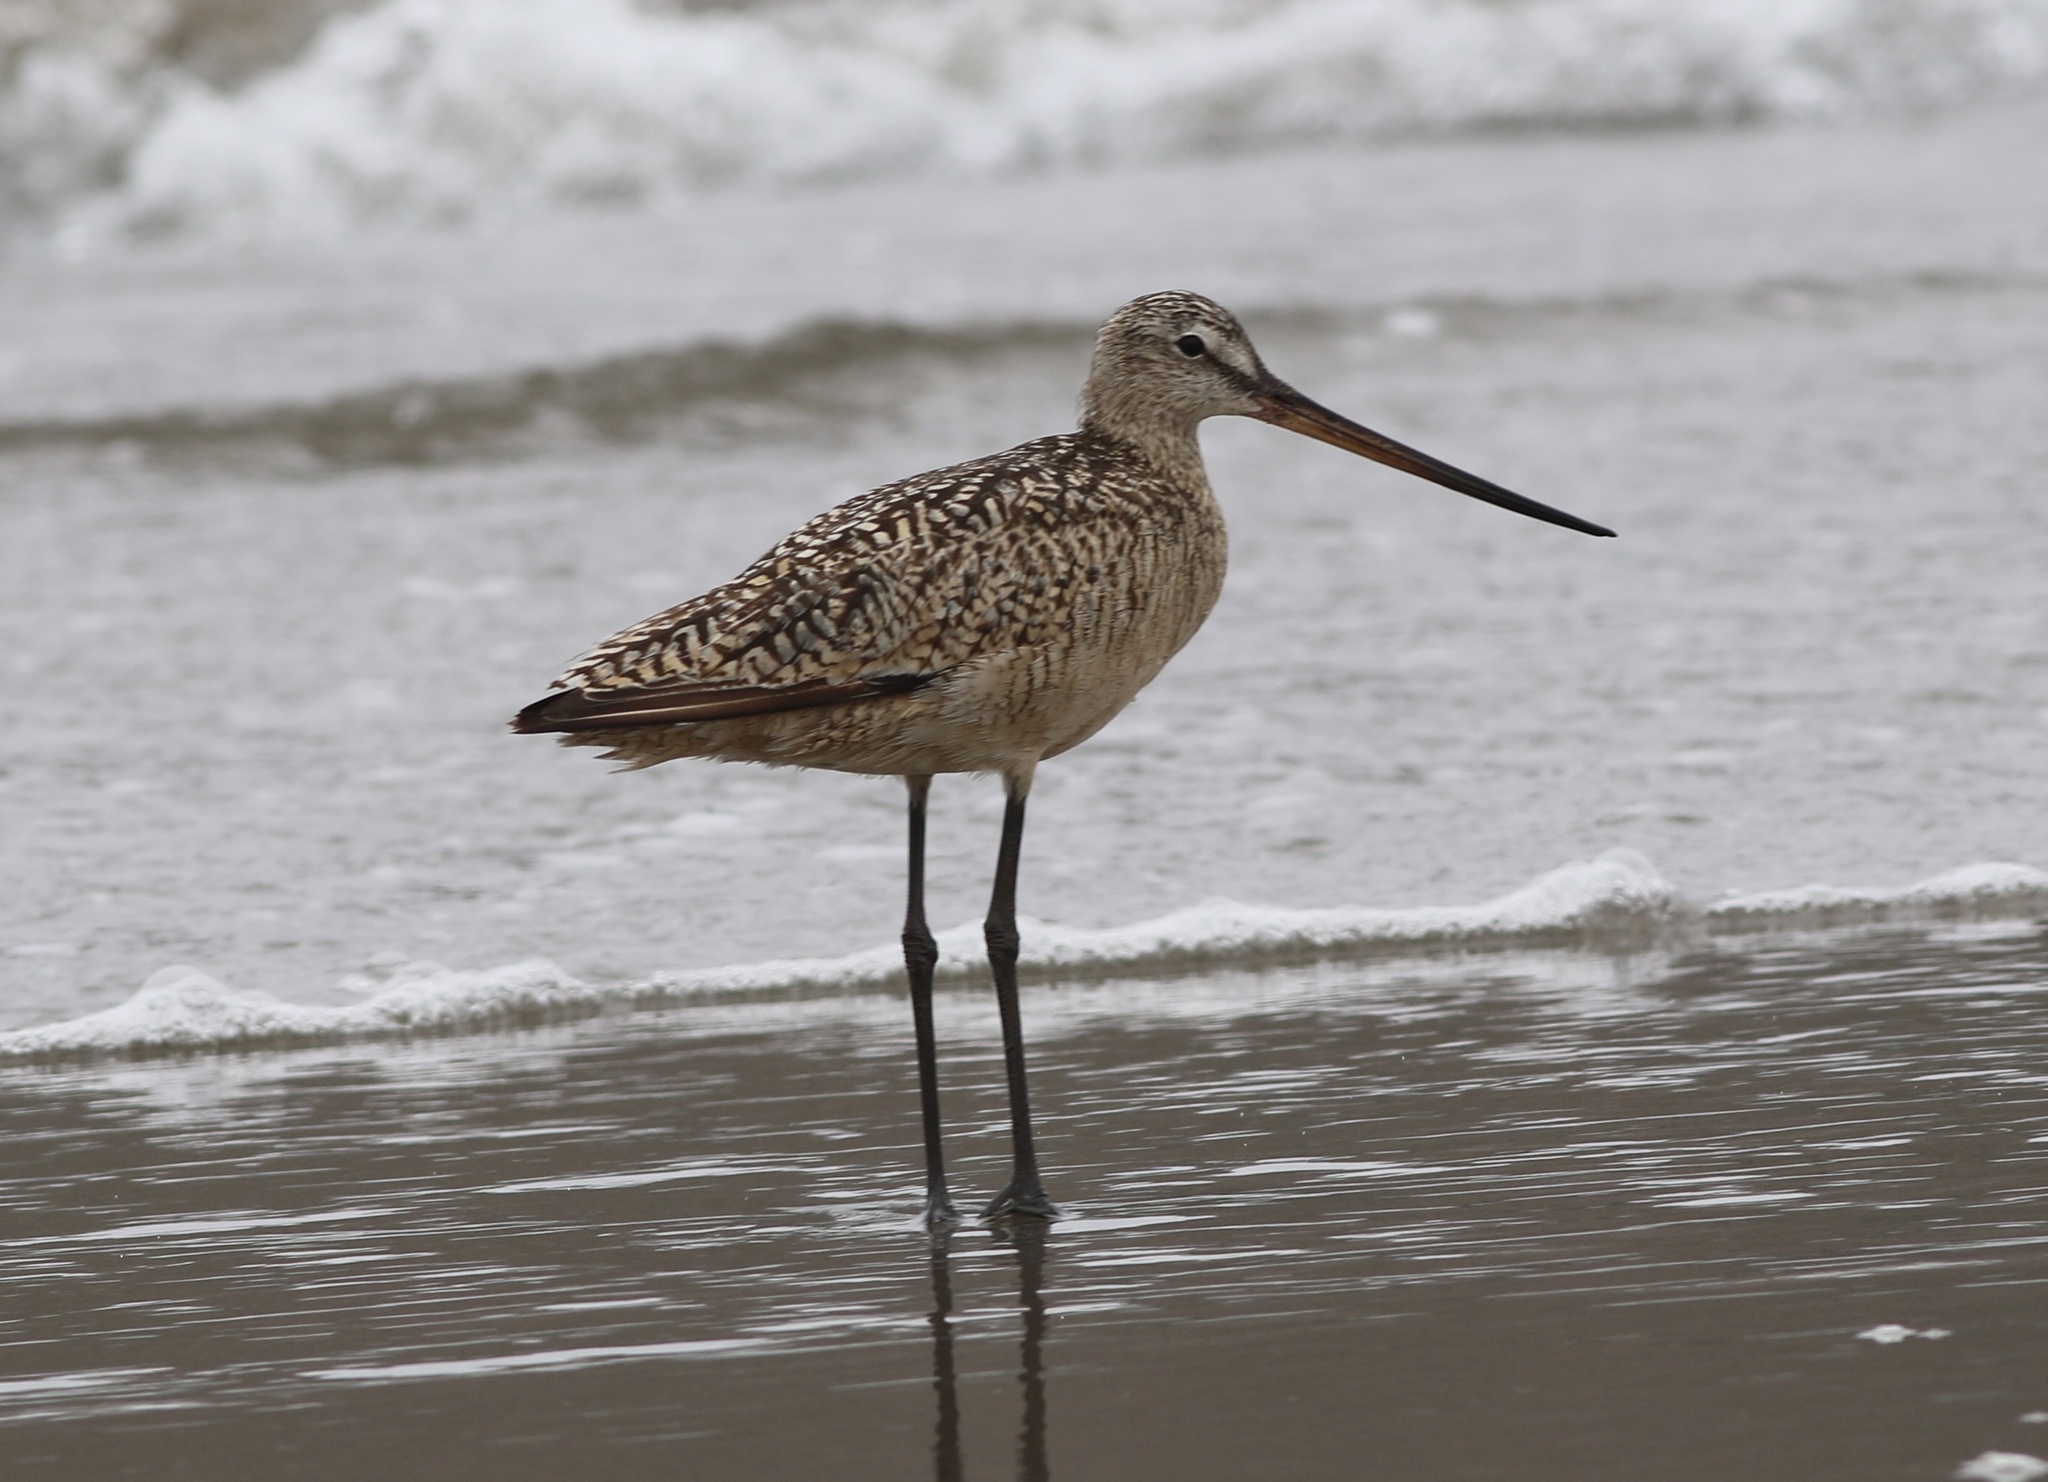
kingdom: Animalia
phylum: Chordata
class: Aves
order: Charadriiformes
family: Scolopacidae
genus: Limosa
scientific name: Limosa fedoa
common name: Marbled godwit
